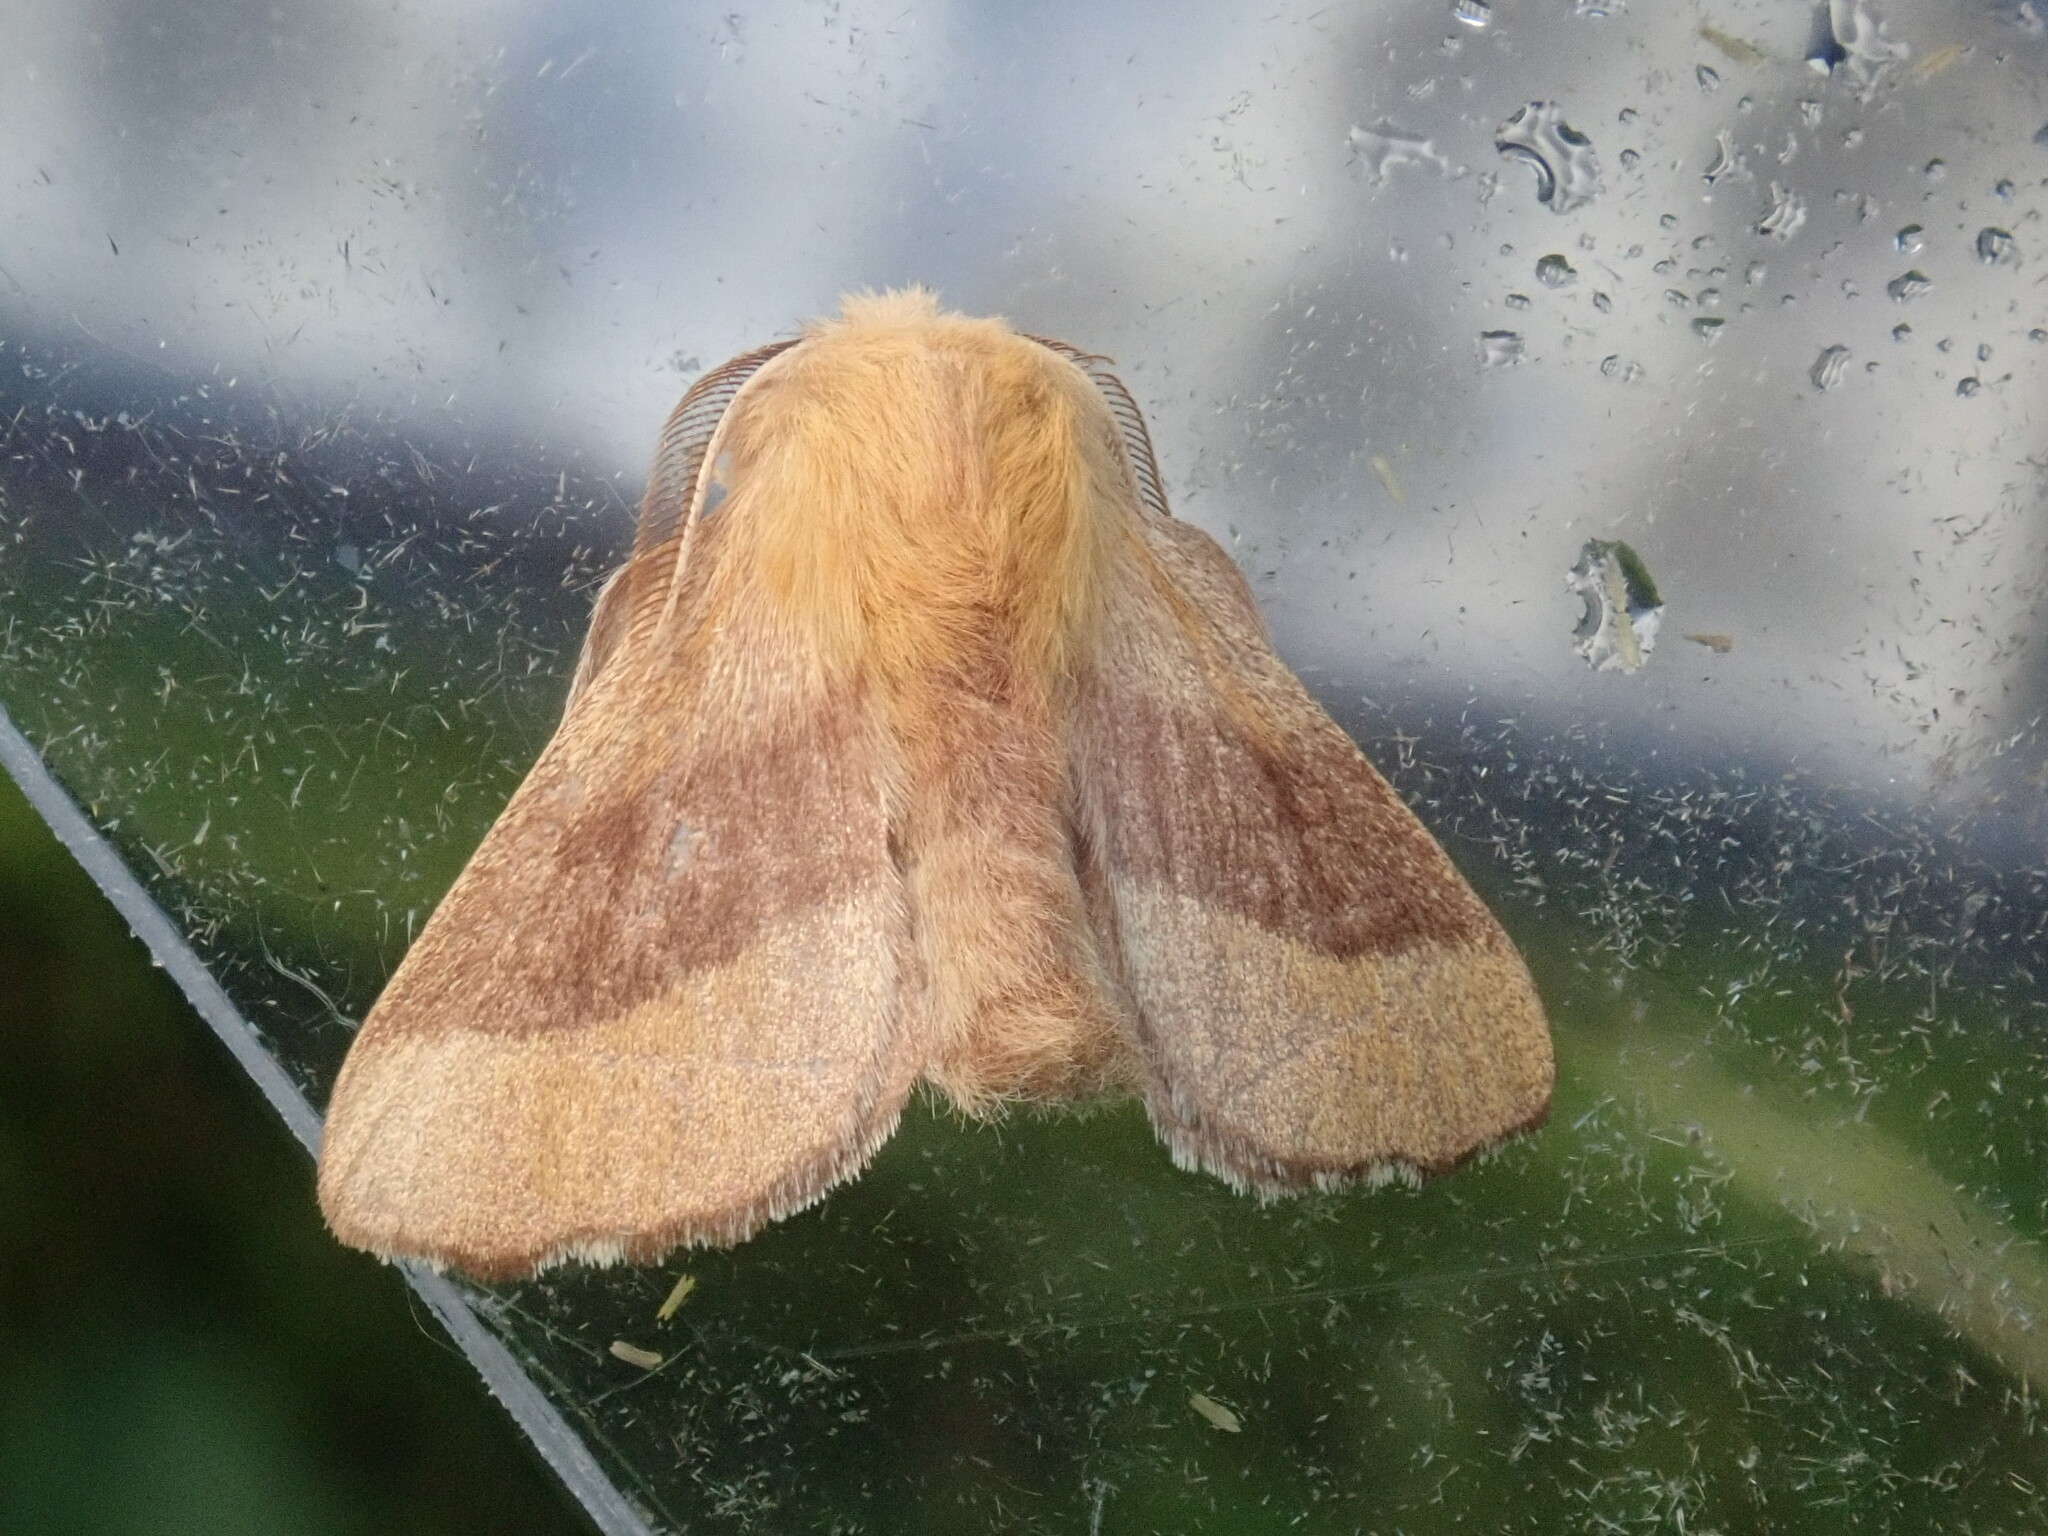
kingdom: Animalia
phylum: Arthropoda
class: Insecta
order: Lepidoptera
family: Lasiocampidae
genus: Malacosoma
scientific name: Malacosoma disstria
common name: Forest tent caterpillar
